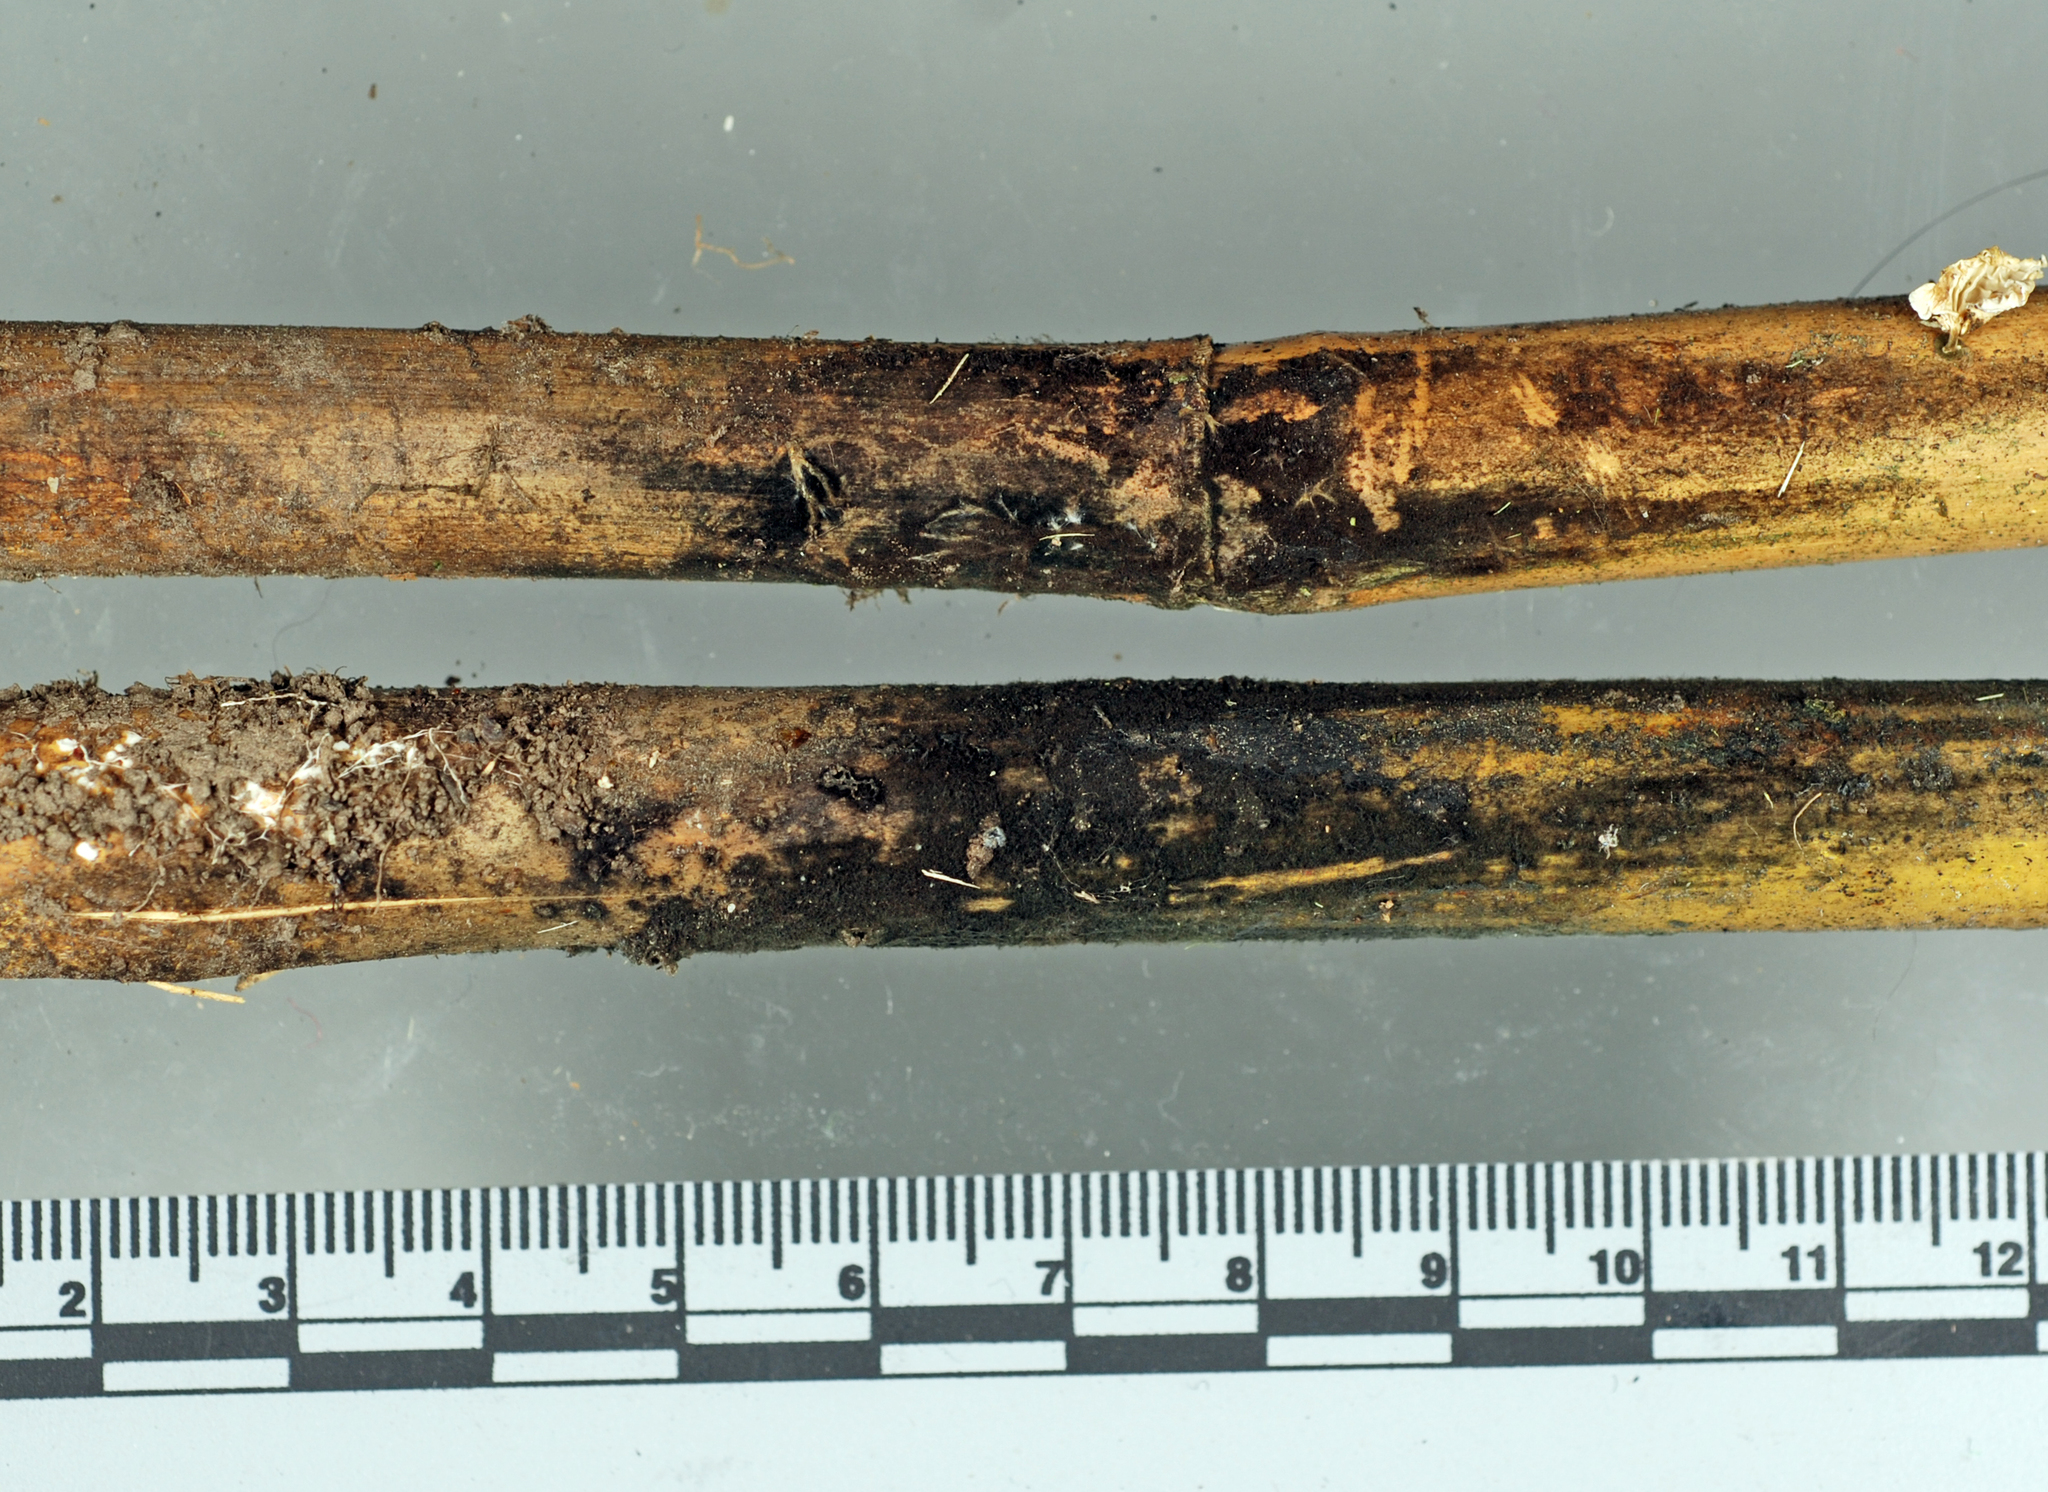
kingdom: Fungi
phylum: Ascomycota
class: Dothideomycetes
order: Pleosporales
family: Kirschsteiniotheliaceae
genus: Solicorynespora
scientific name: Solicorynespora foveolata
